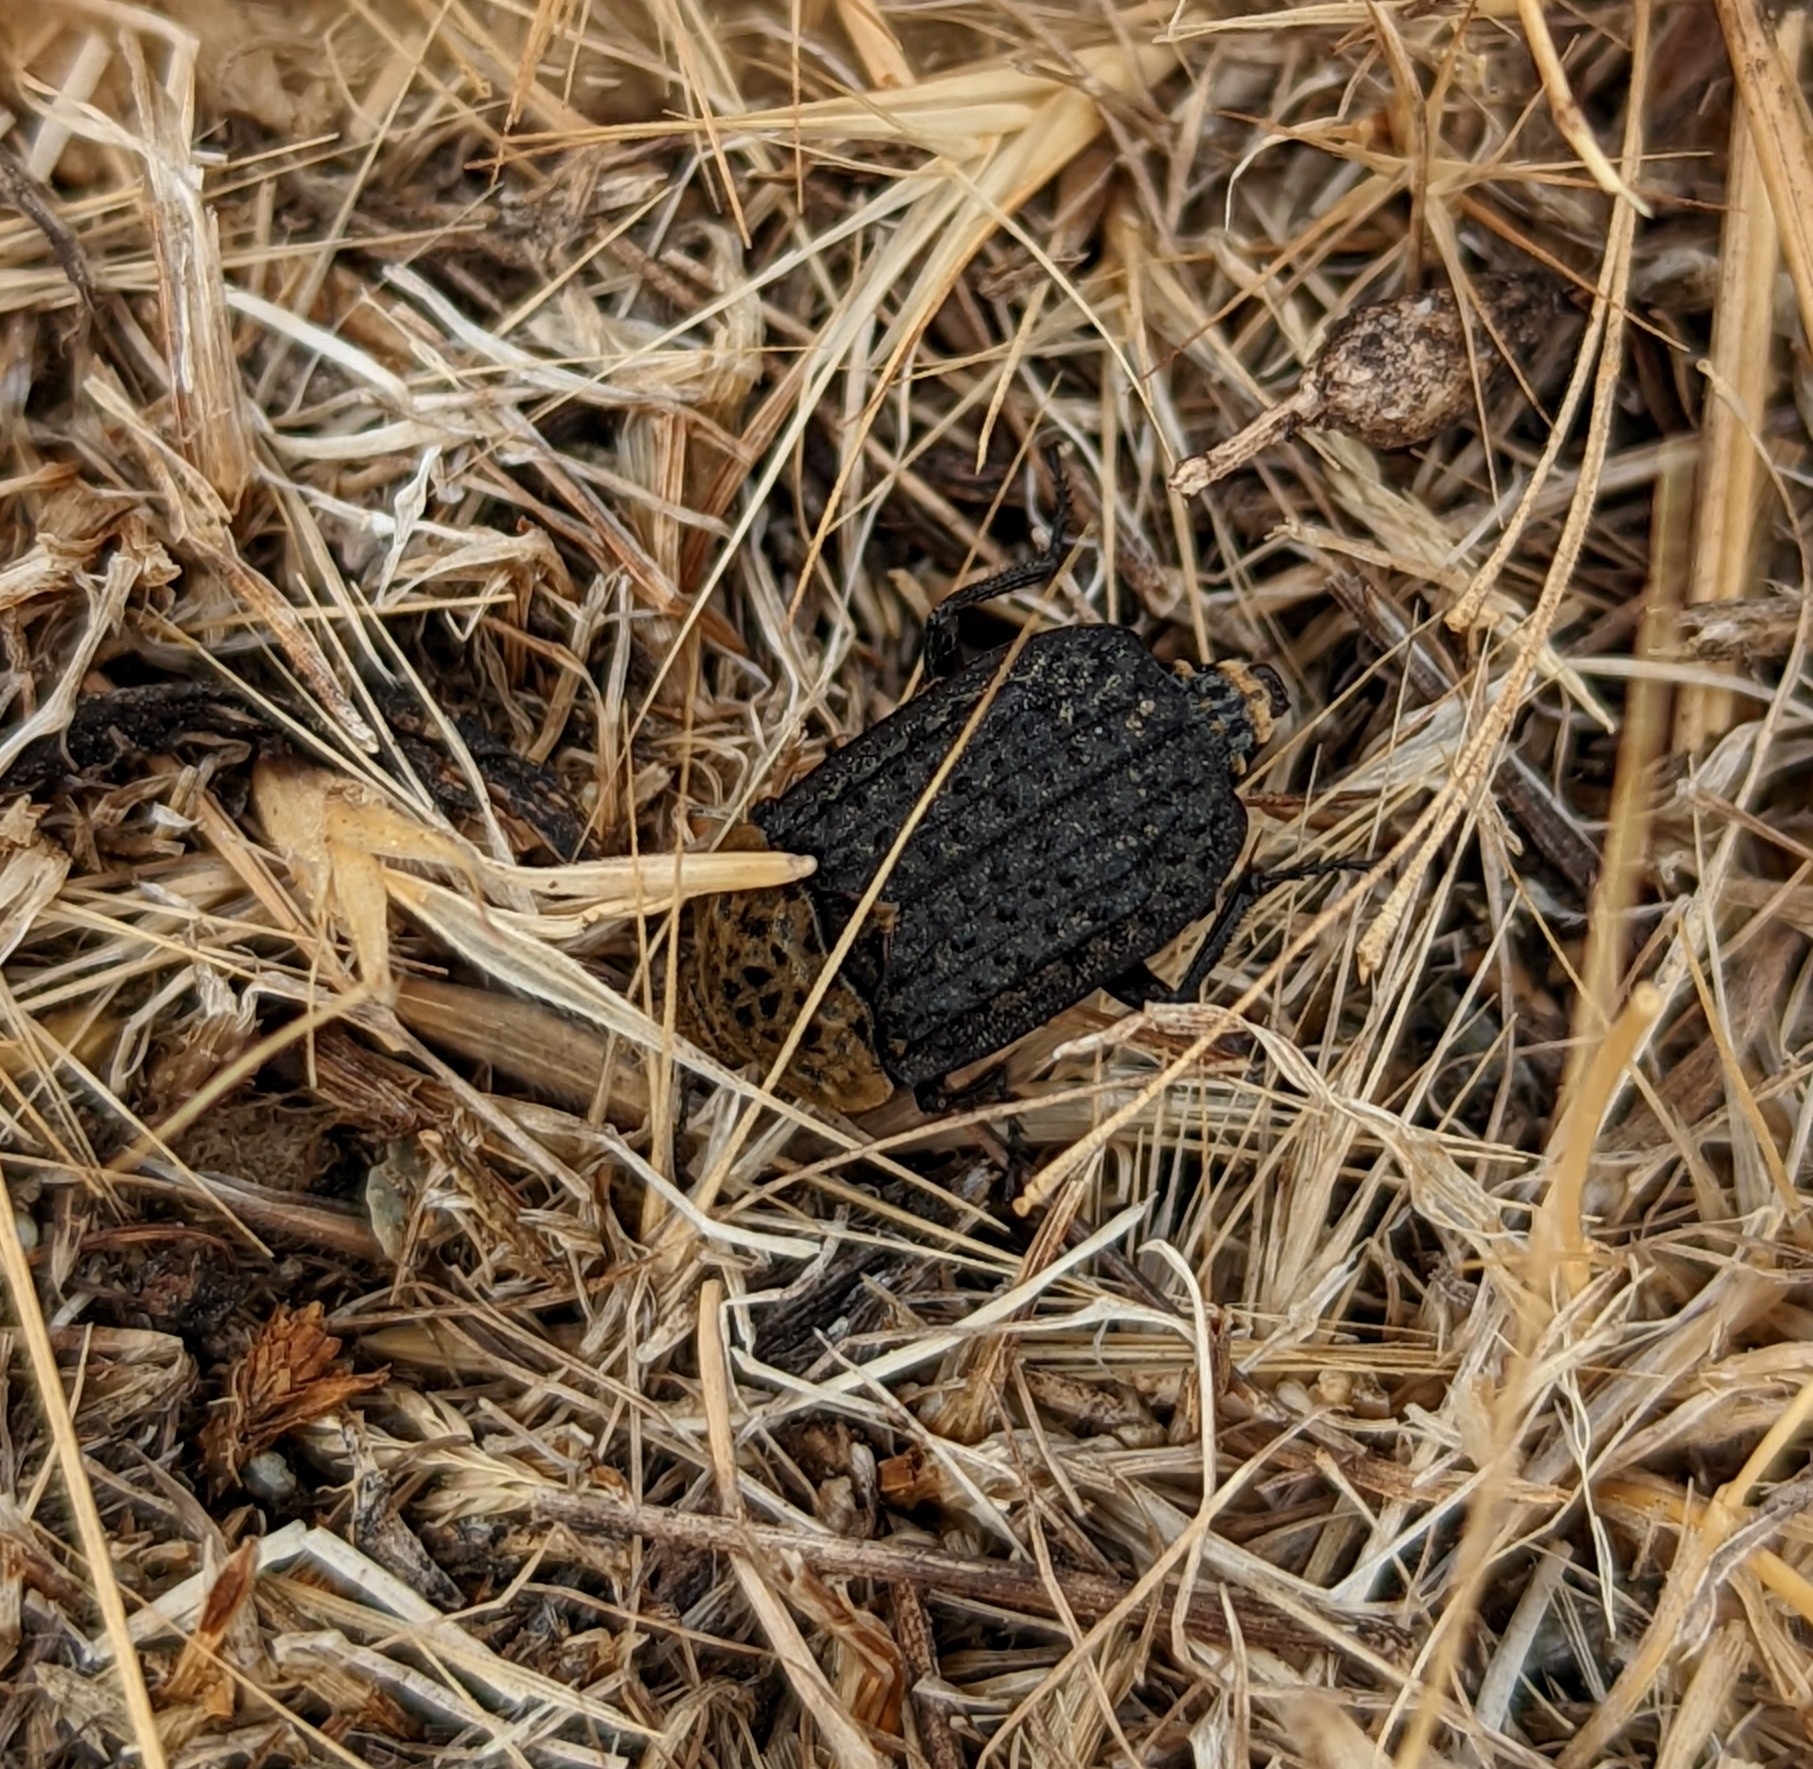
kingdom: Animalia
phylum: Arthropoda
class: Insecta
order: Coleoptera
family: Staphylinidae
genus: Thanatophilus
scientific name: Thanatophilus lapponicus
